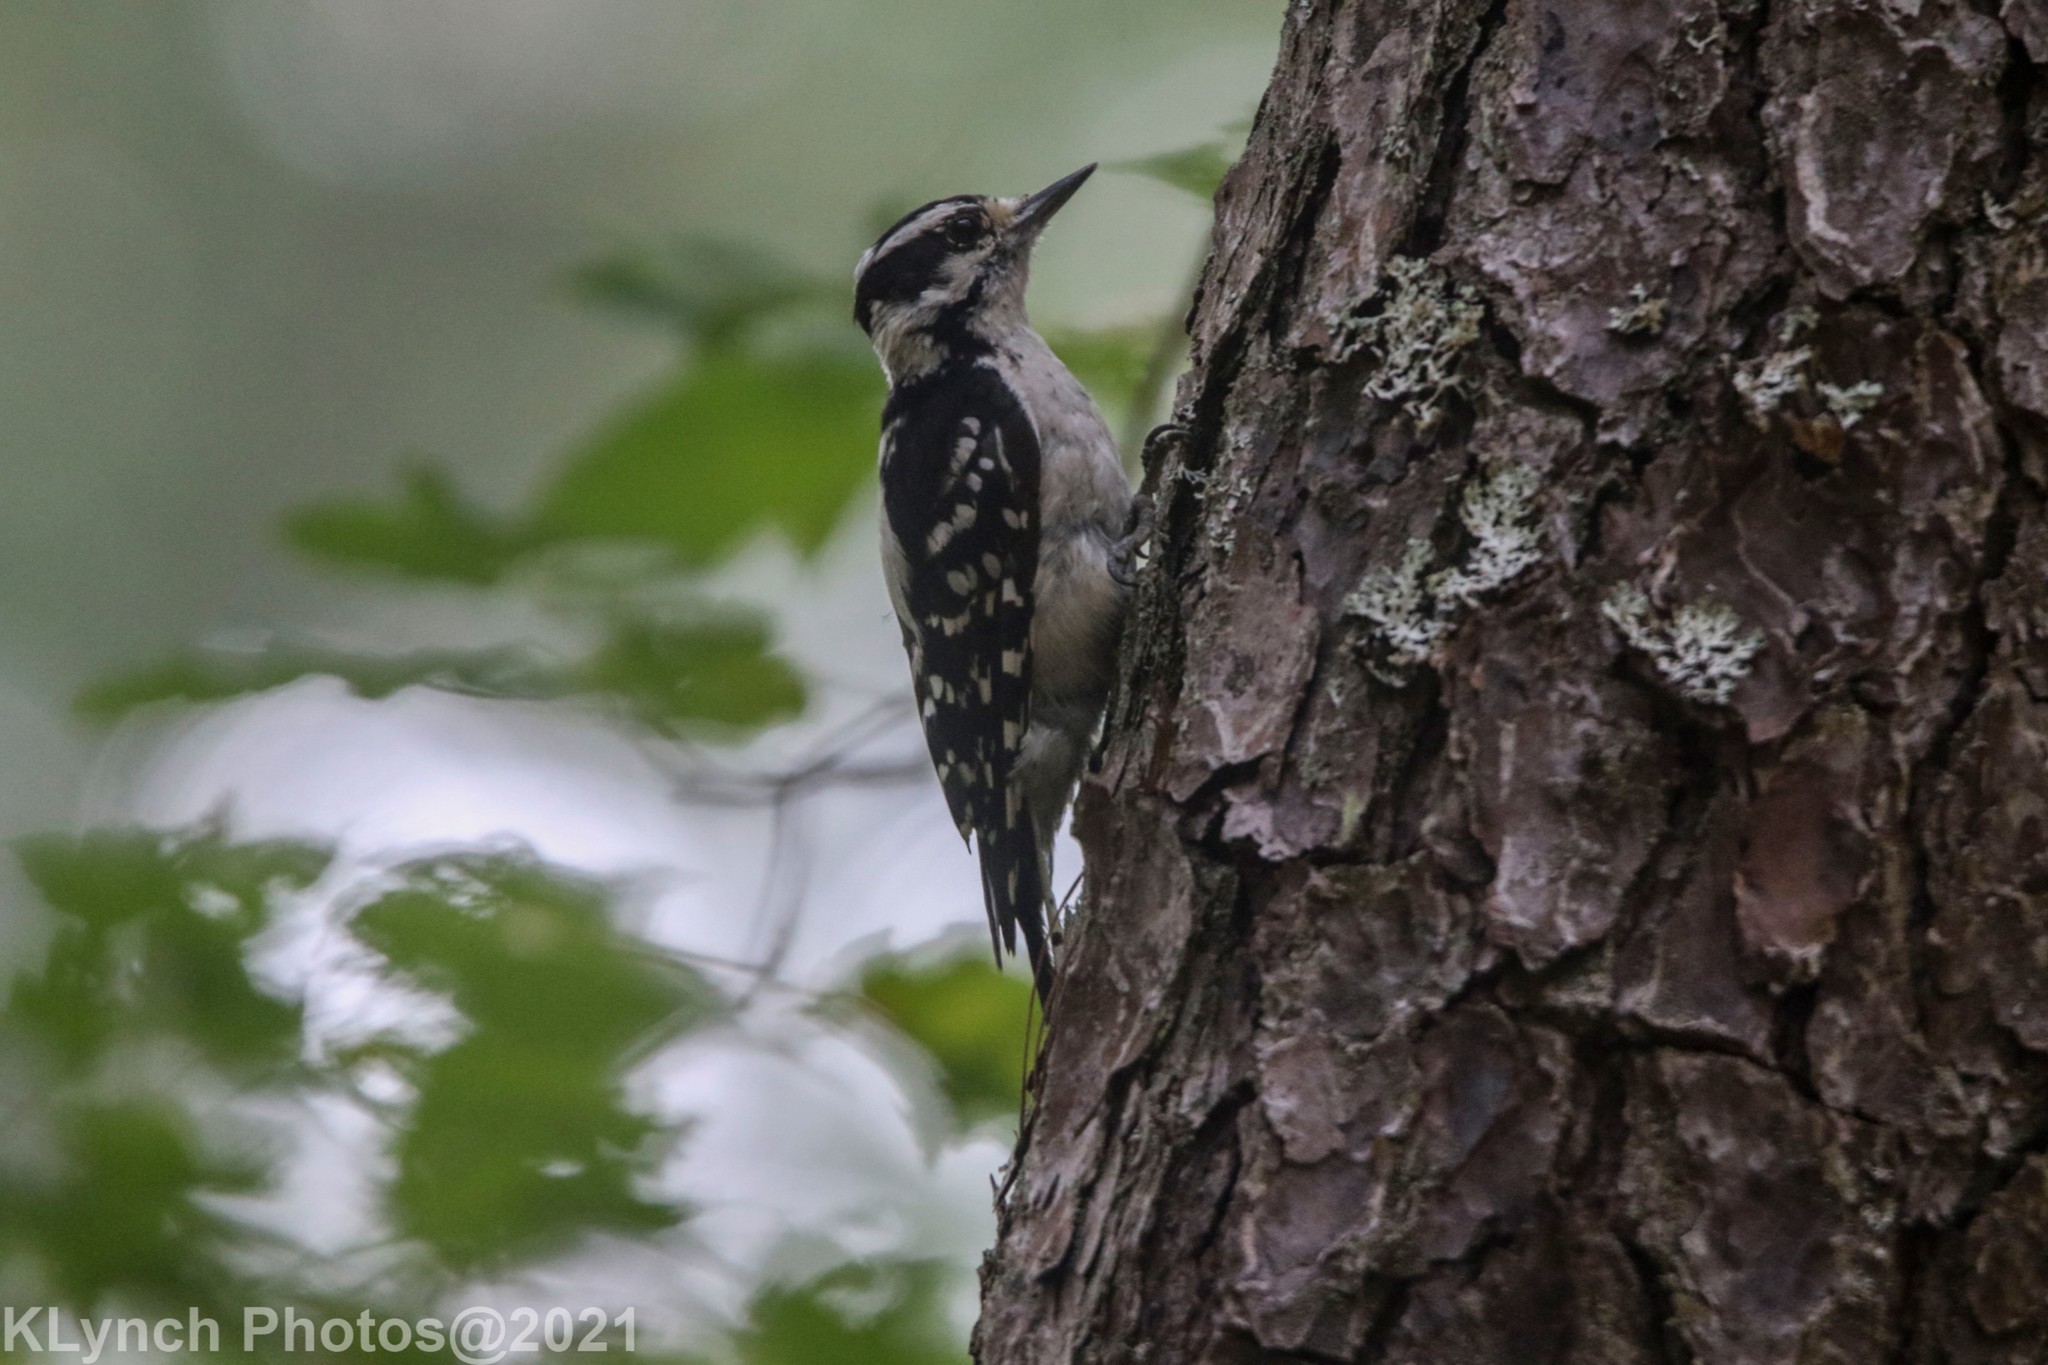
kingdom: Animalia
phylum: Chordata
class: Aves
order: Piciformes
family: Picidae
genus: Dryobates
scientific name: Dryobates pubescens
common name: Downy woodpecker
